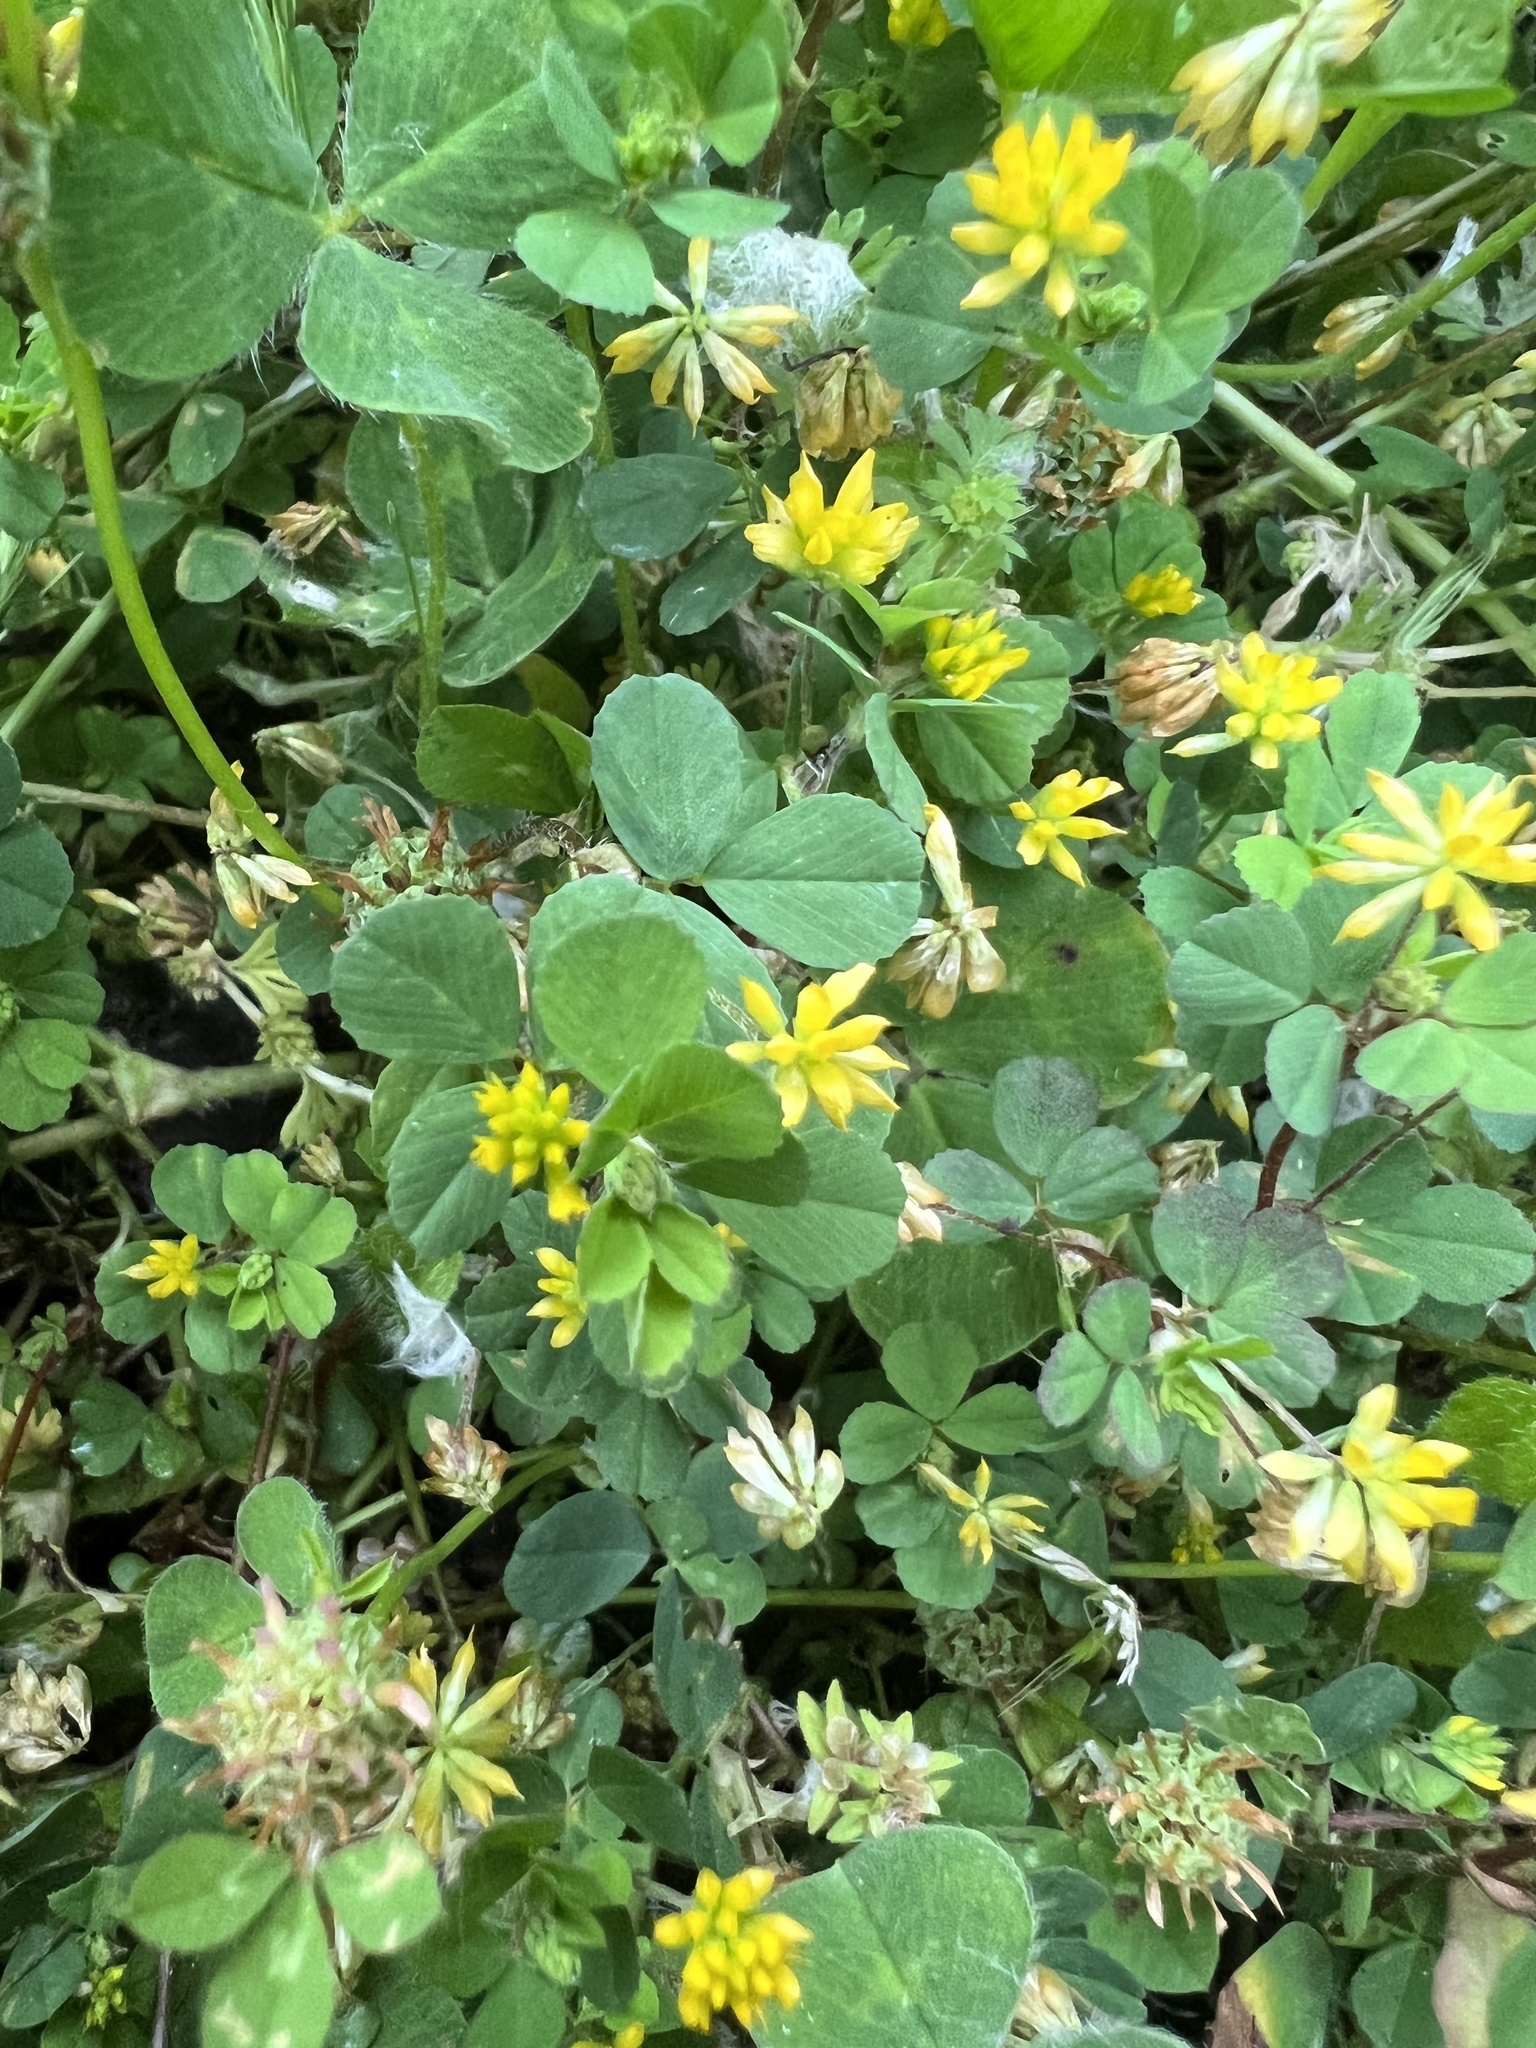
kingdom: Plantae
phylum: Tracheophyta
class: Magnoliopsida
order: Fabales
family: Fabaceae
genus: Trifolium
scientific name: Trifolium dubium
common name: Suckling clover
